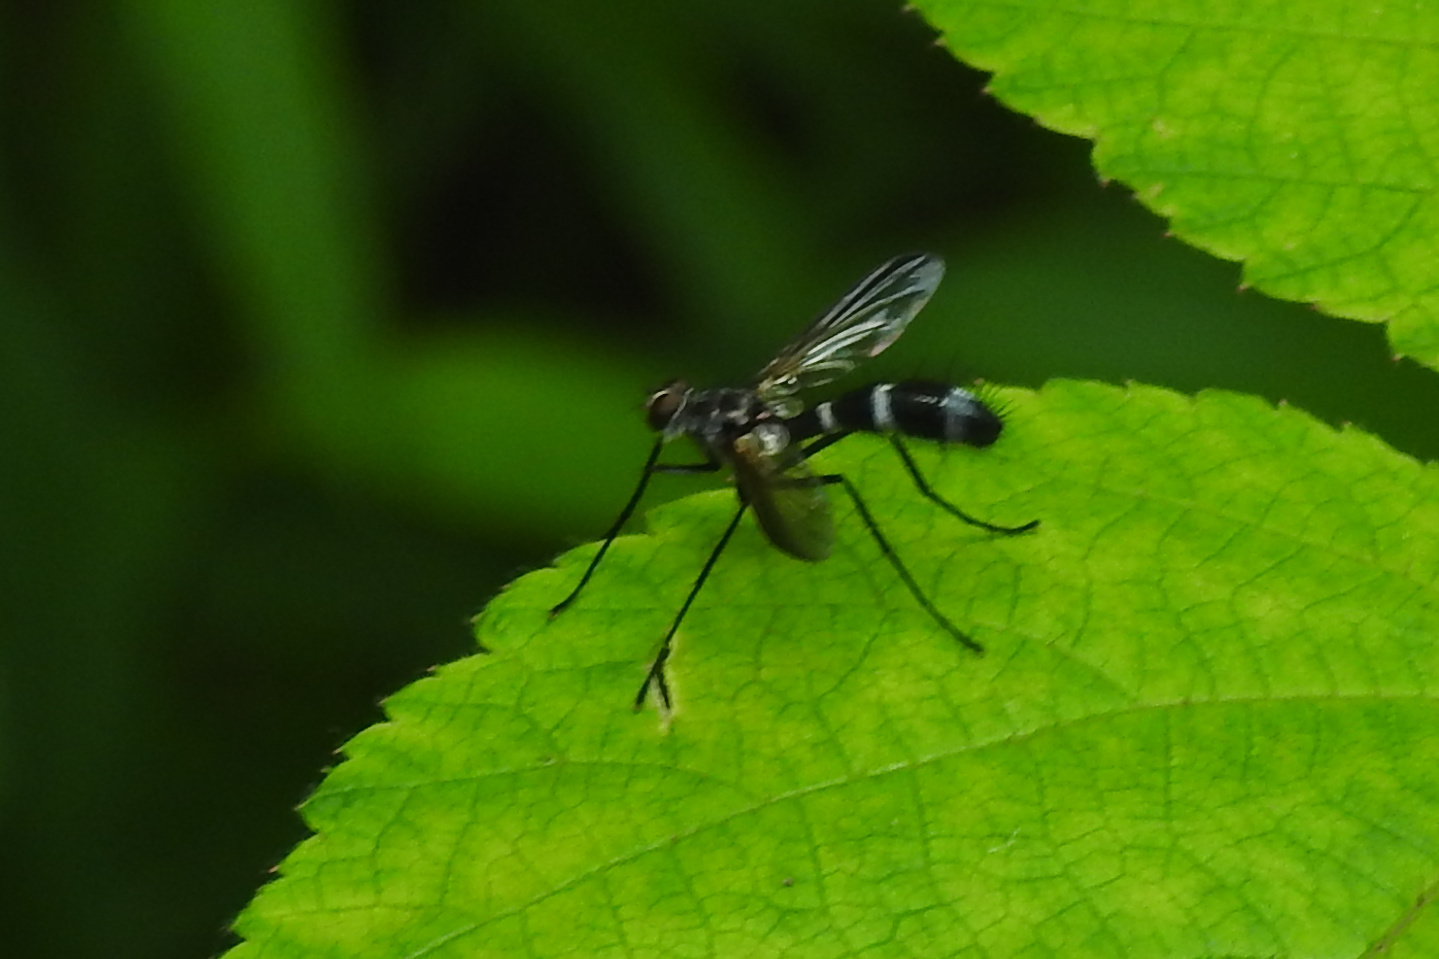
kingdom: Animalia
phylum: Arthropoda
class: Insecta
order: Diptera
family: Tachinidae
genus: Cordyligaster
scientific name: Cordyligaster septentrionalis
